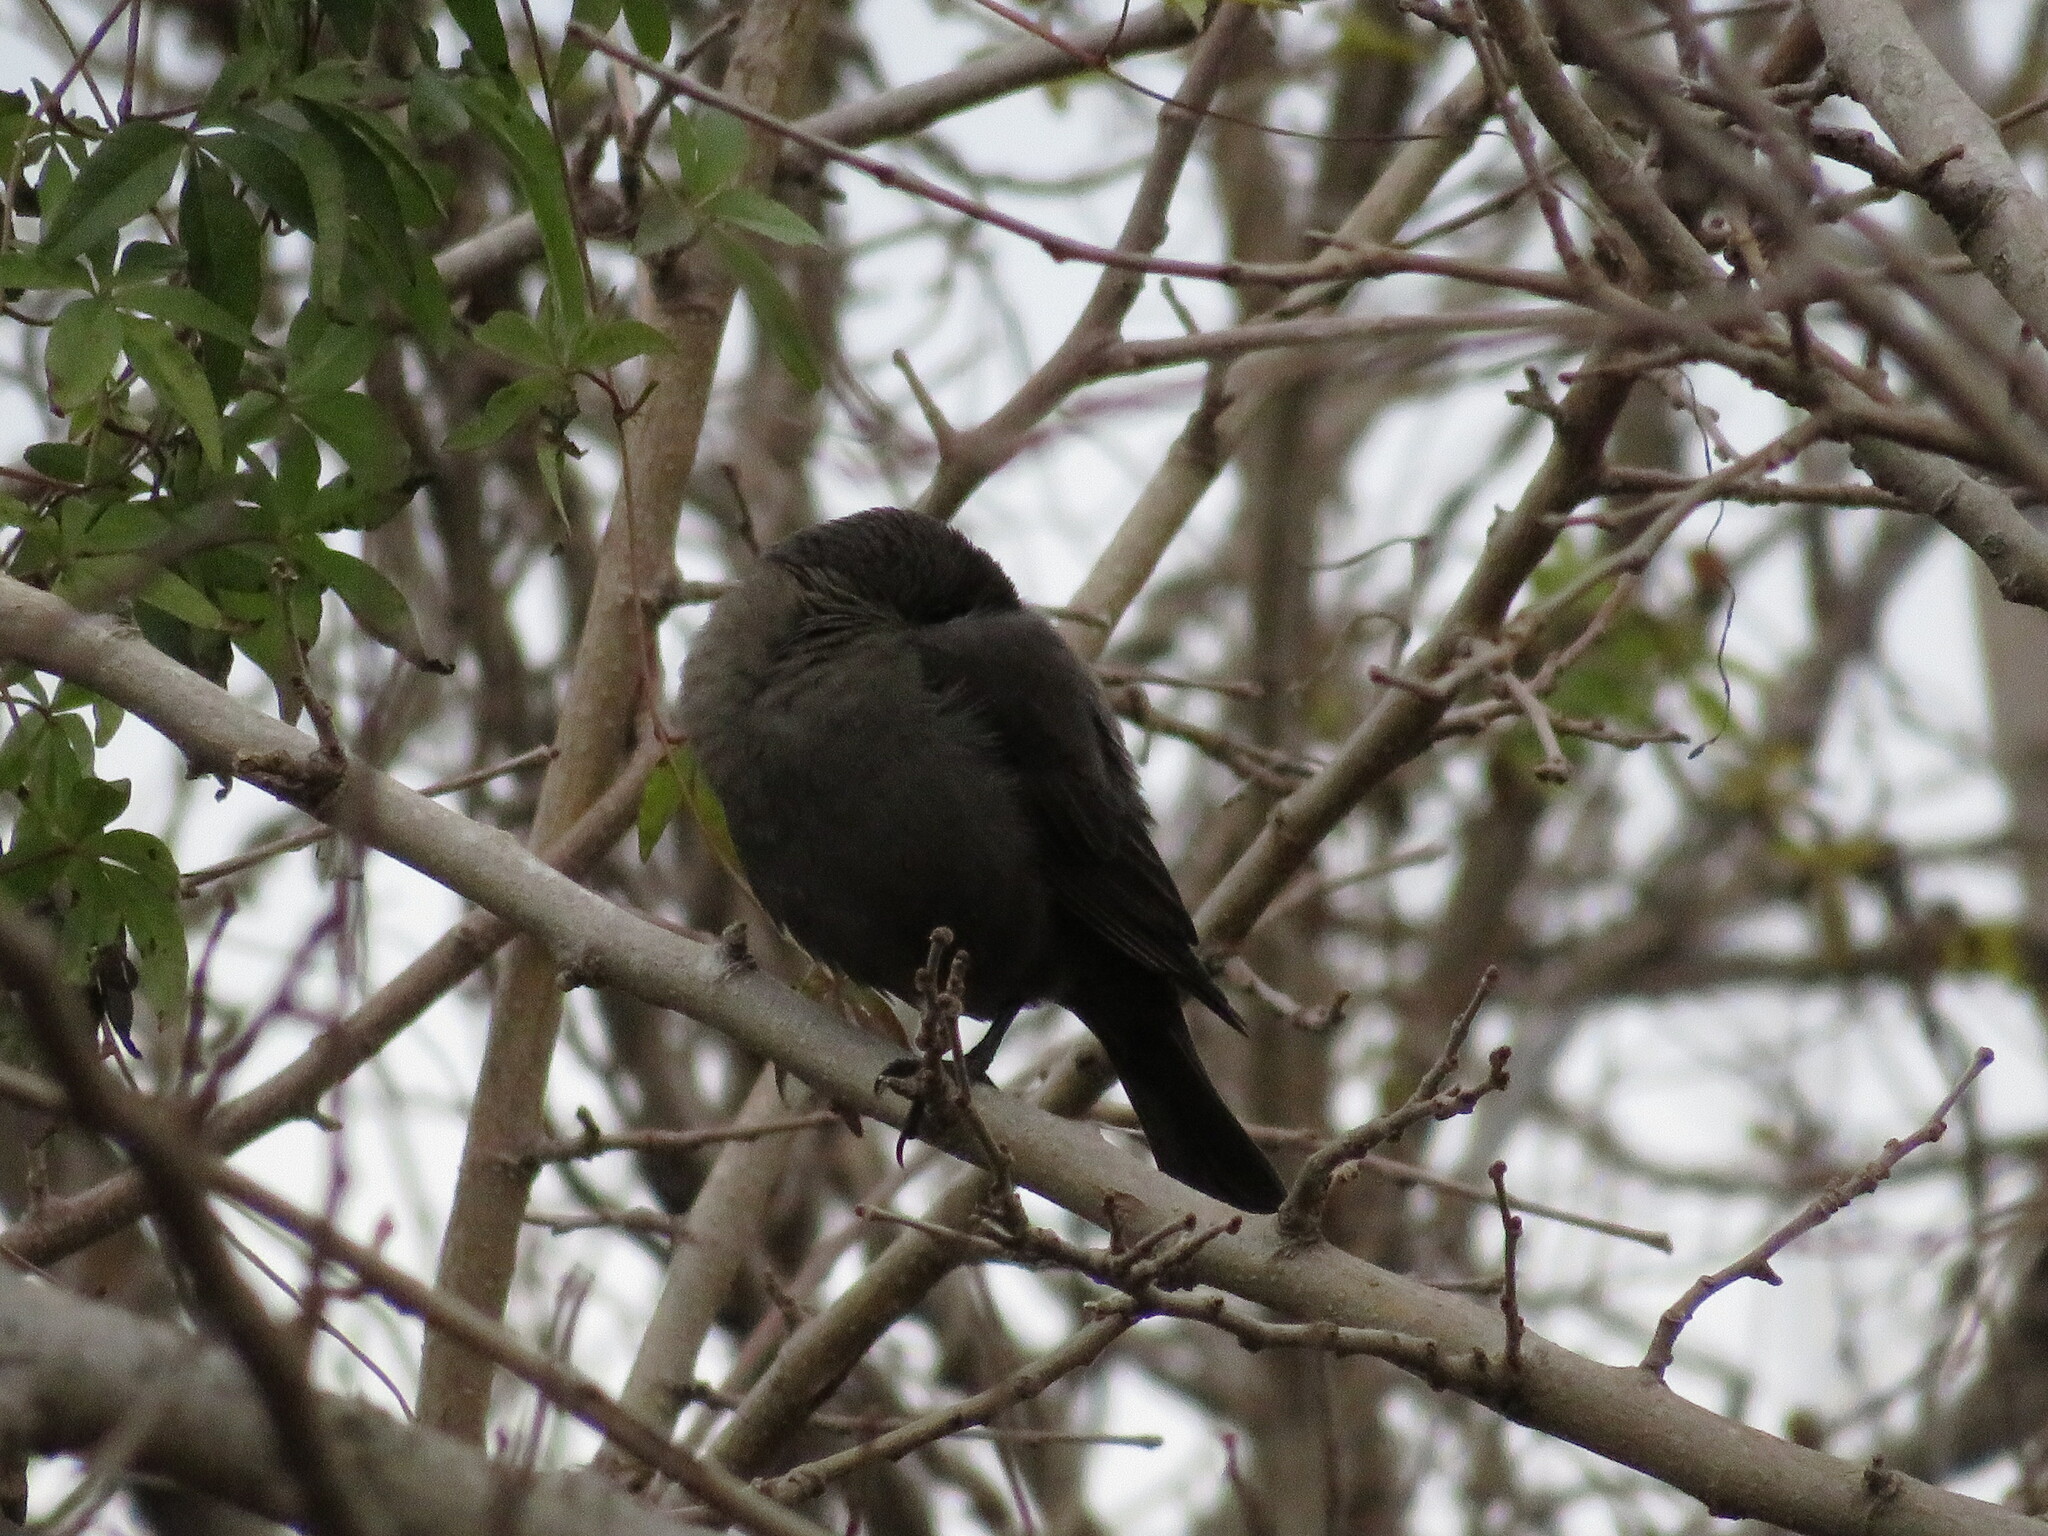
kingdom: Animalia
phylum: Chordata
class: Aves
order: Passeriformes
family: Icteridae
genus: Molothrus
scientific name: Molothrus bonariensis
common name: Shiny cowbird
